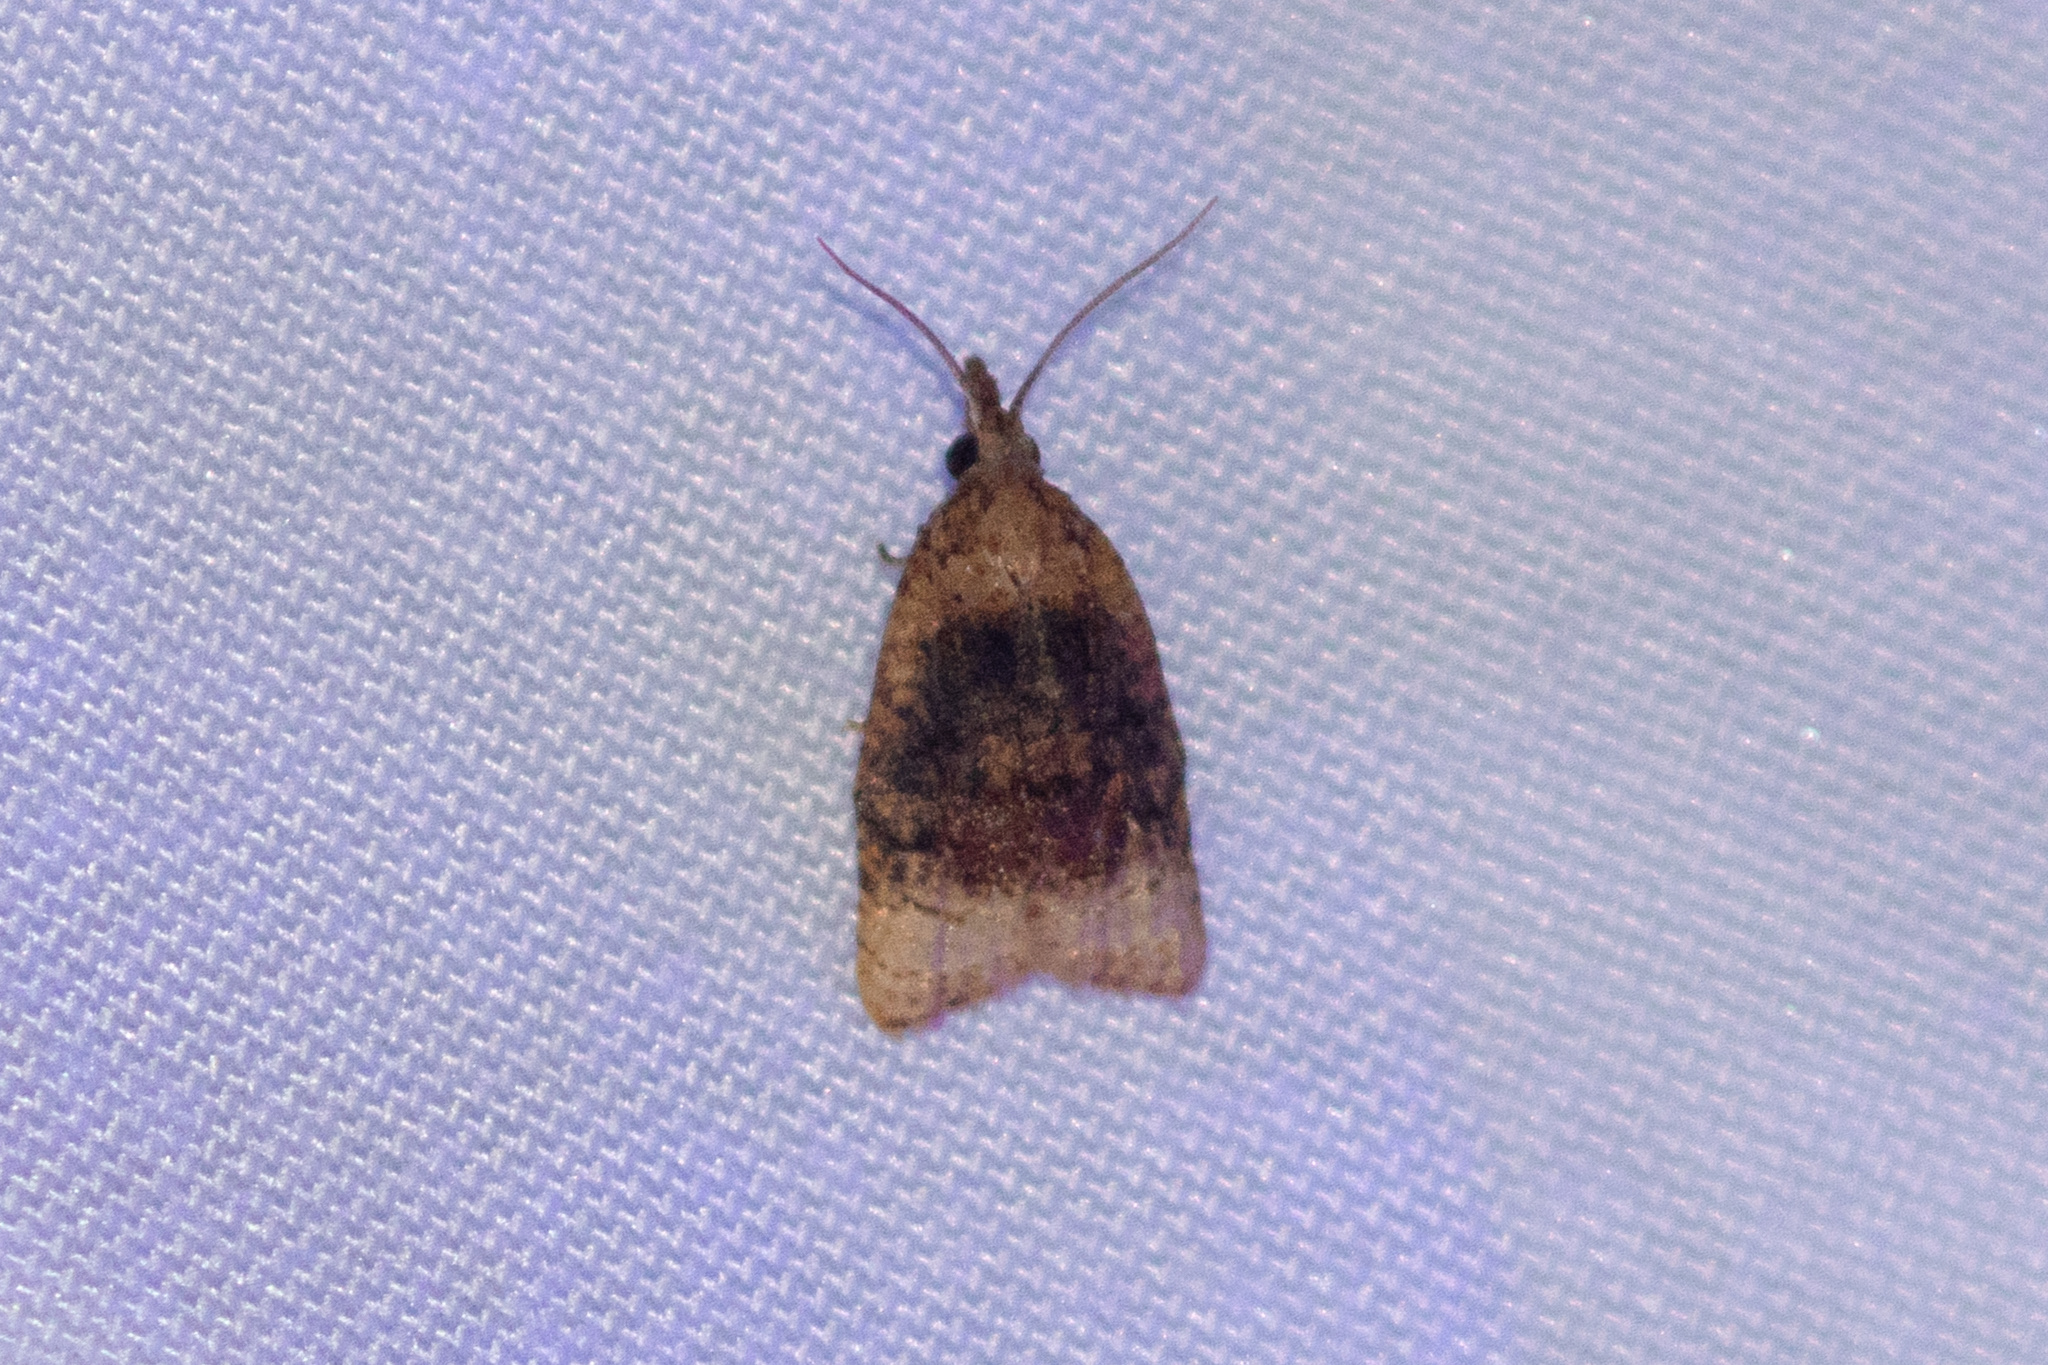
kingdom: Animalia
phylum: Arthropoda
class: Insecta
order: Lepidoptera
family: Tortricidae
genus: Platynota
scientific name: Platynota flavedana
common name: Black-shaded platynota moth
